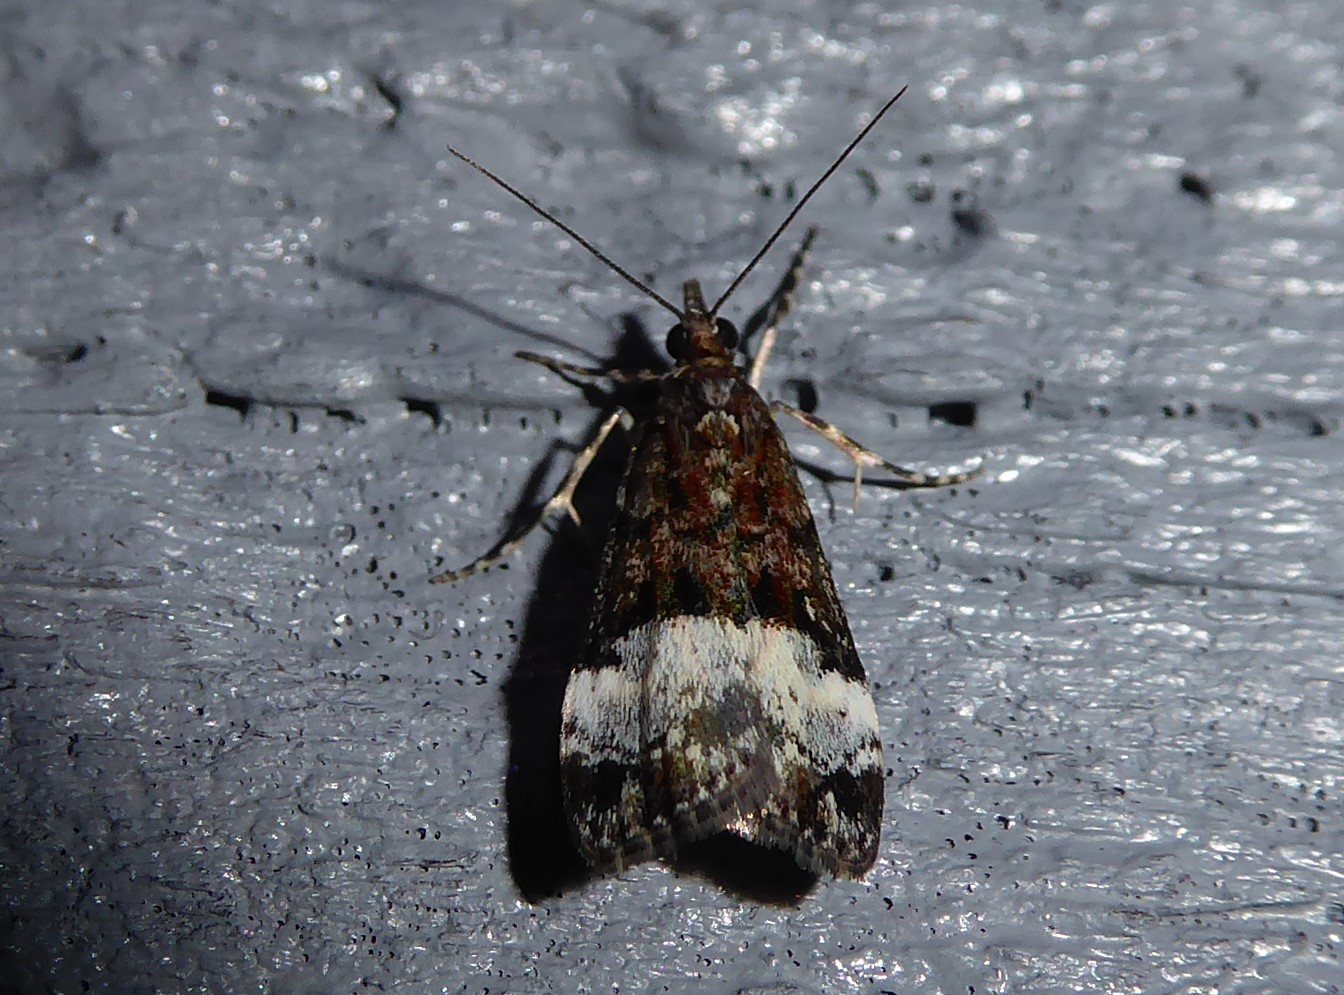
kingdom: Animalia
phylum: Arthropoda
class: Insecta
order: Lepidoptera
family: Crambidae
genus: Scoparia
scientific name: Scoparia minusculalis
